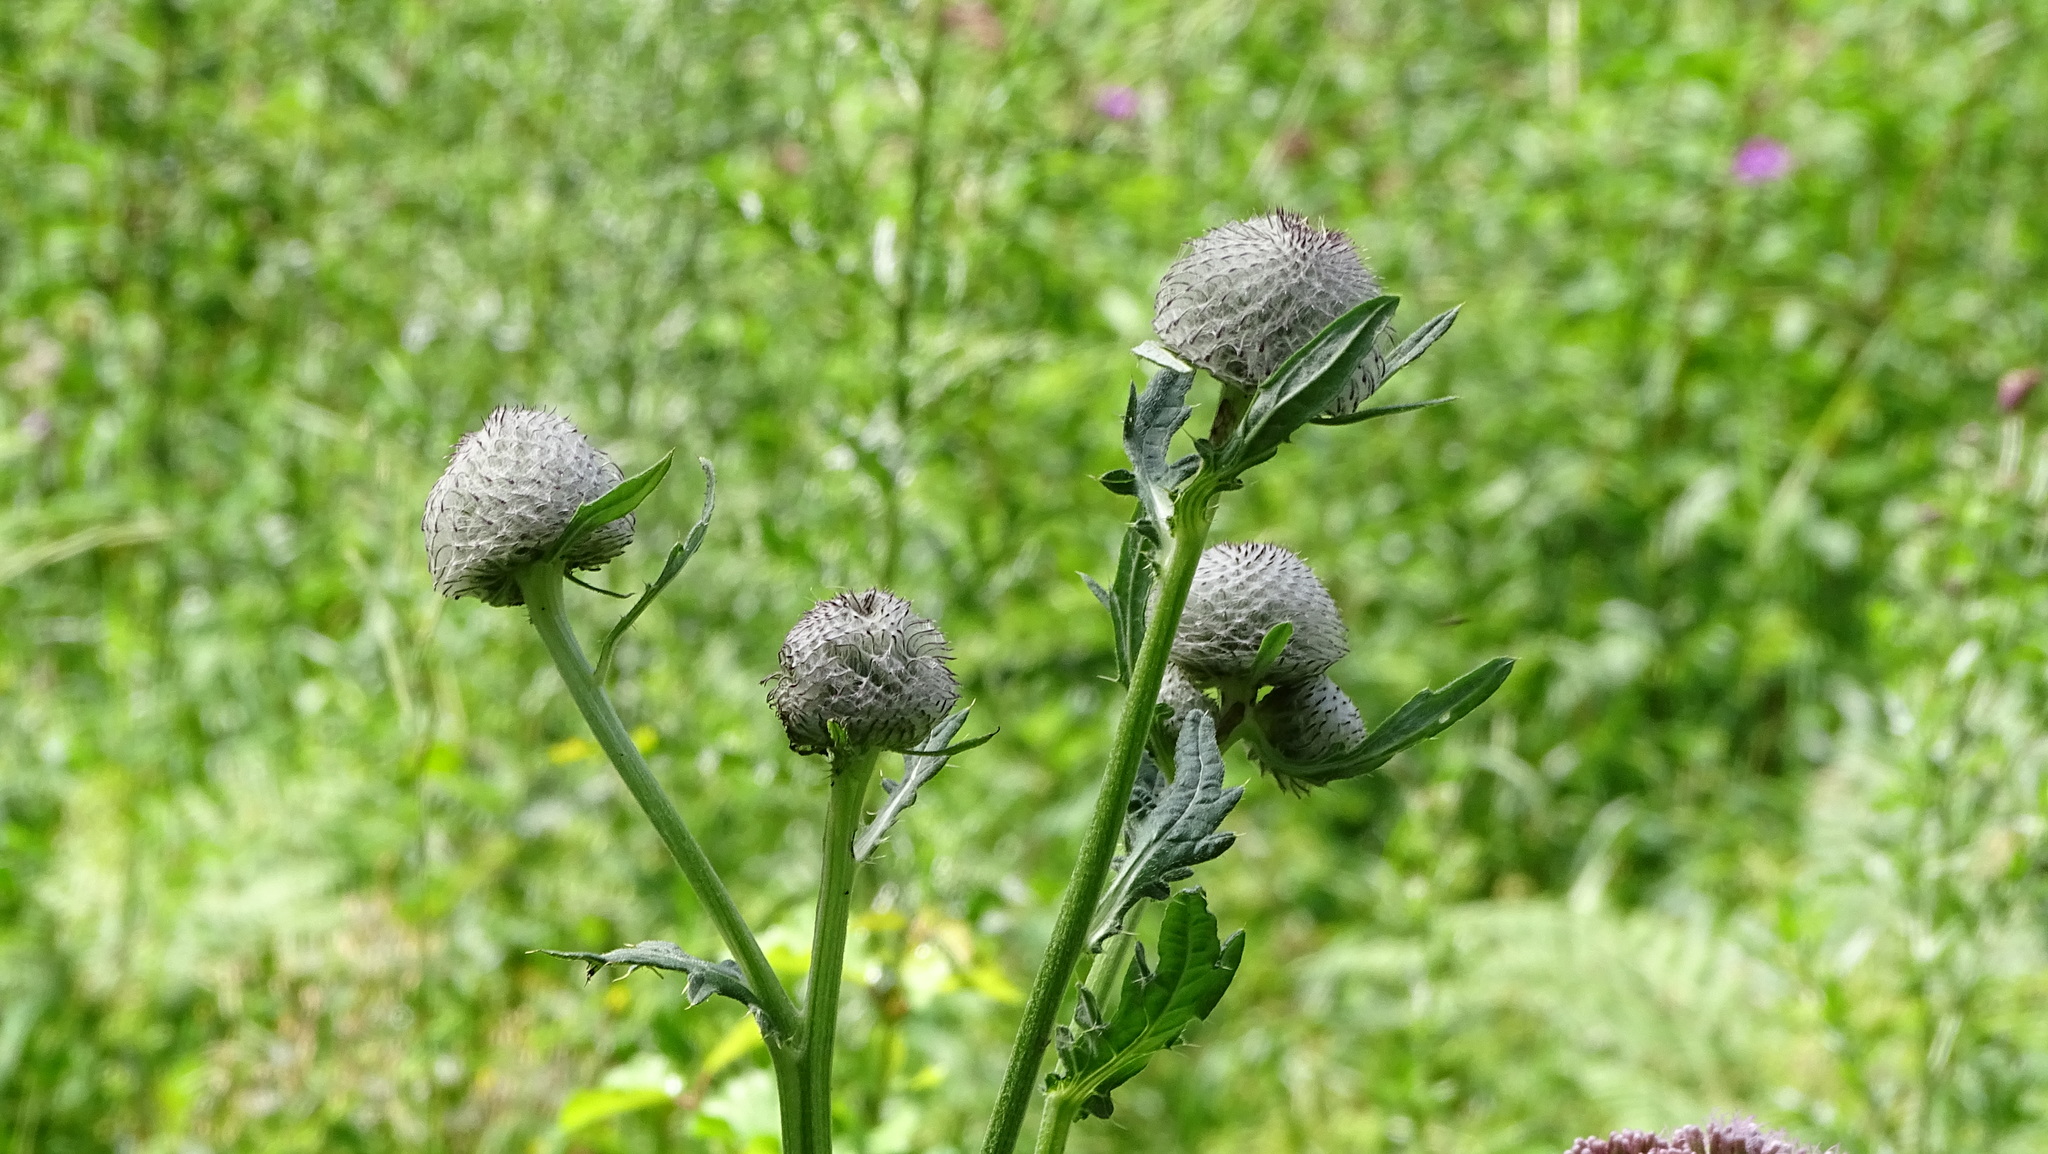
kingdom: Plantae
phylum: Tracheophyta
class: Magnoliopsida
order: Asterales
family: Asteraceae
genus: Lophiolepis
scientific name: Lophiolepis eriophora
